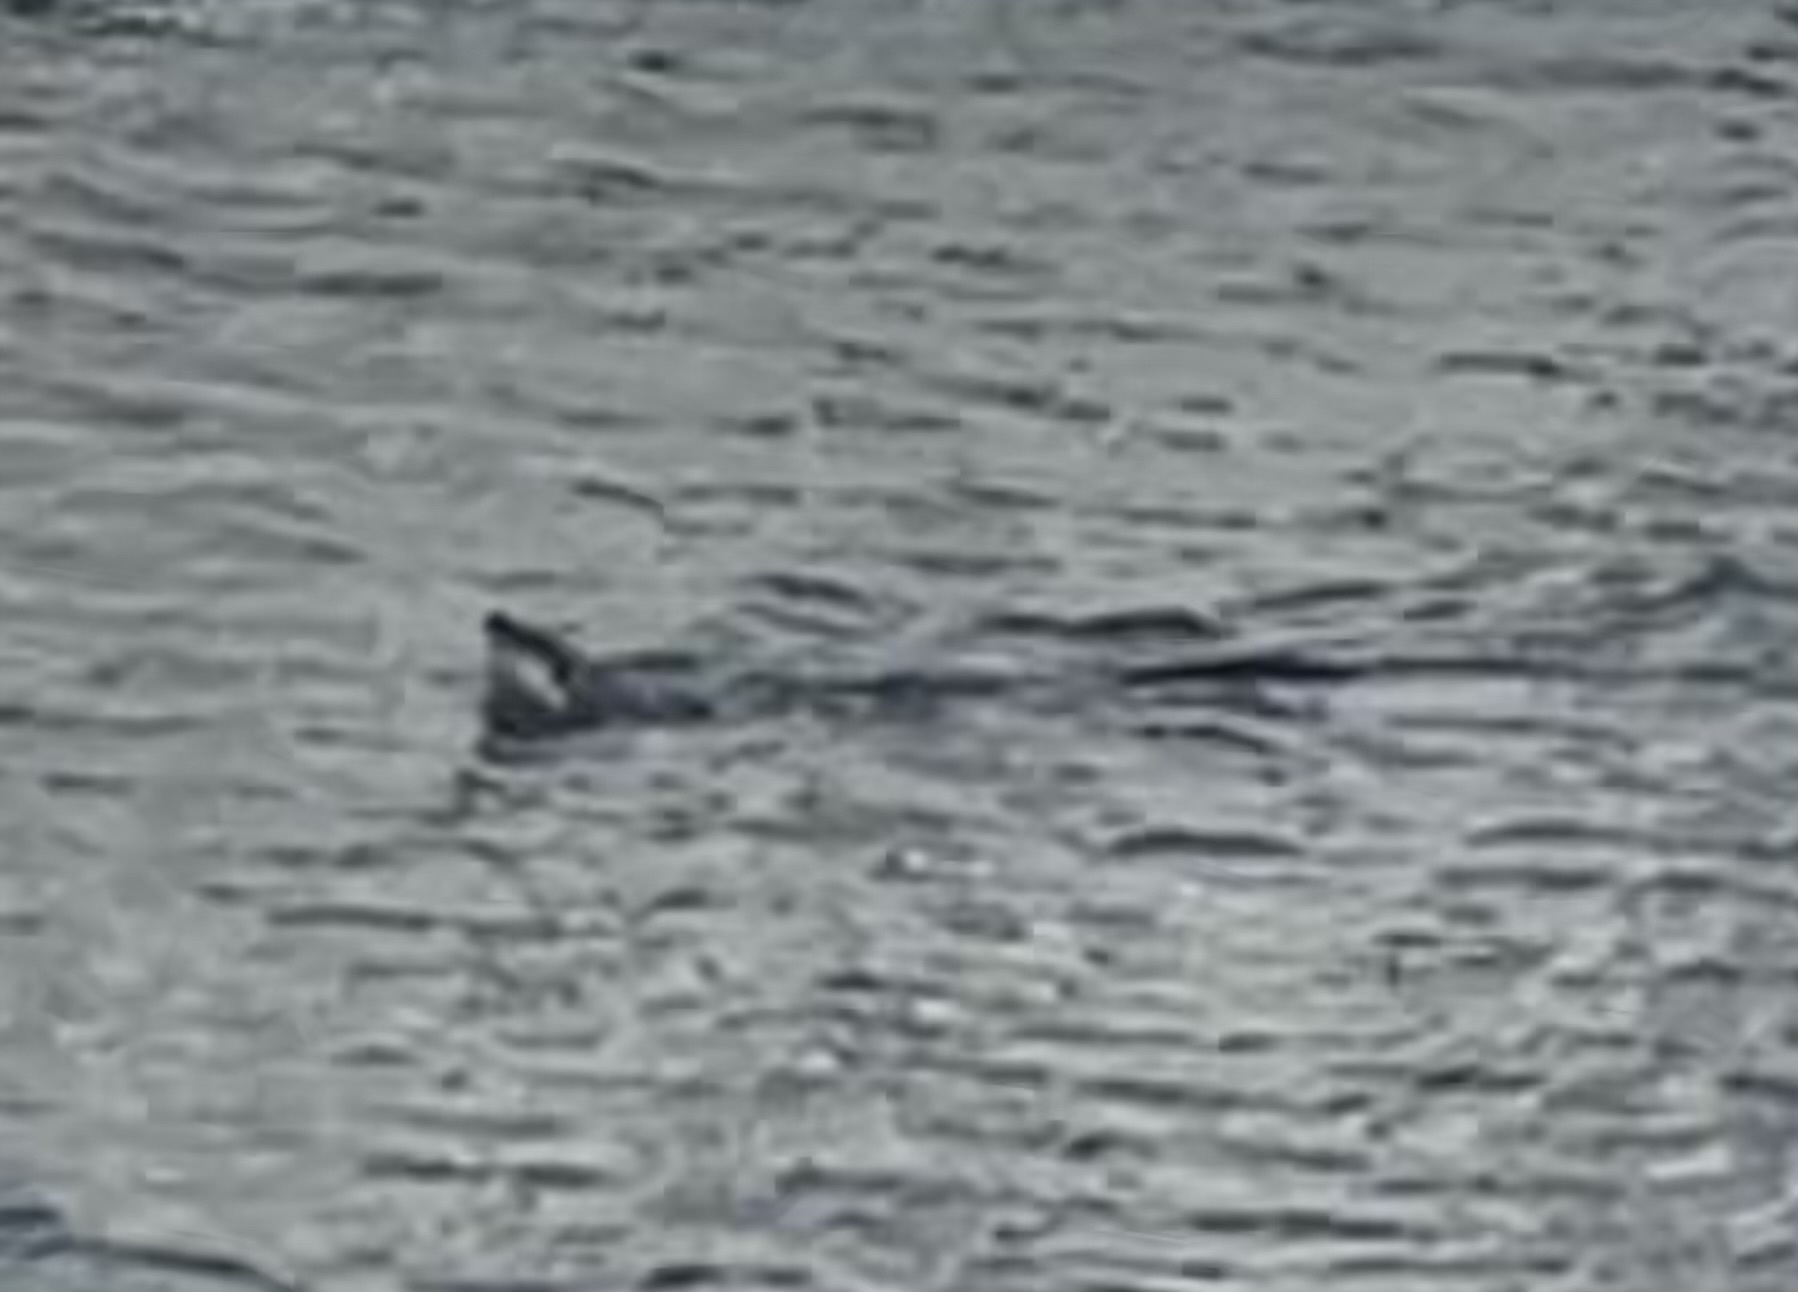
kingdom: Animalia
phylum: Chordata
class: Mammalia
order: Carnivora
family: Mustelidae
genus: Lontra
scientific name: Lontra canadensis
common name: North american river otter
